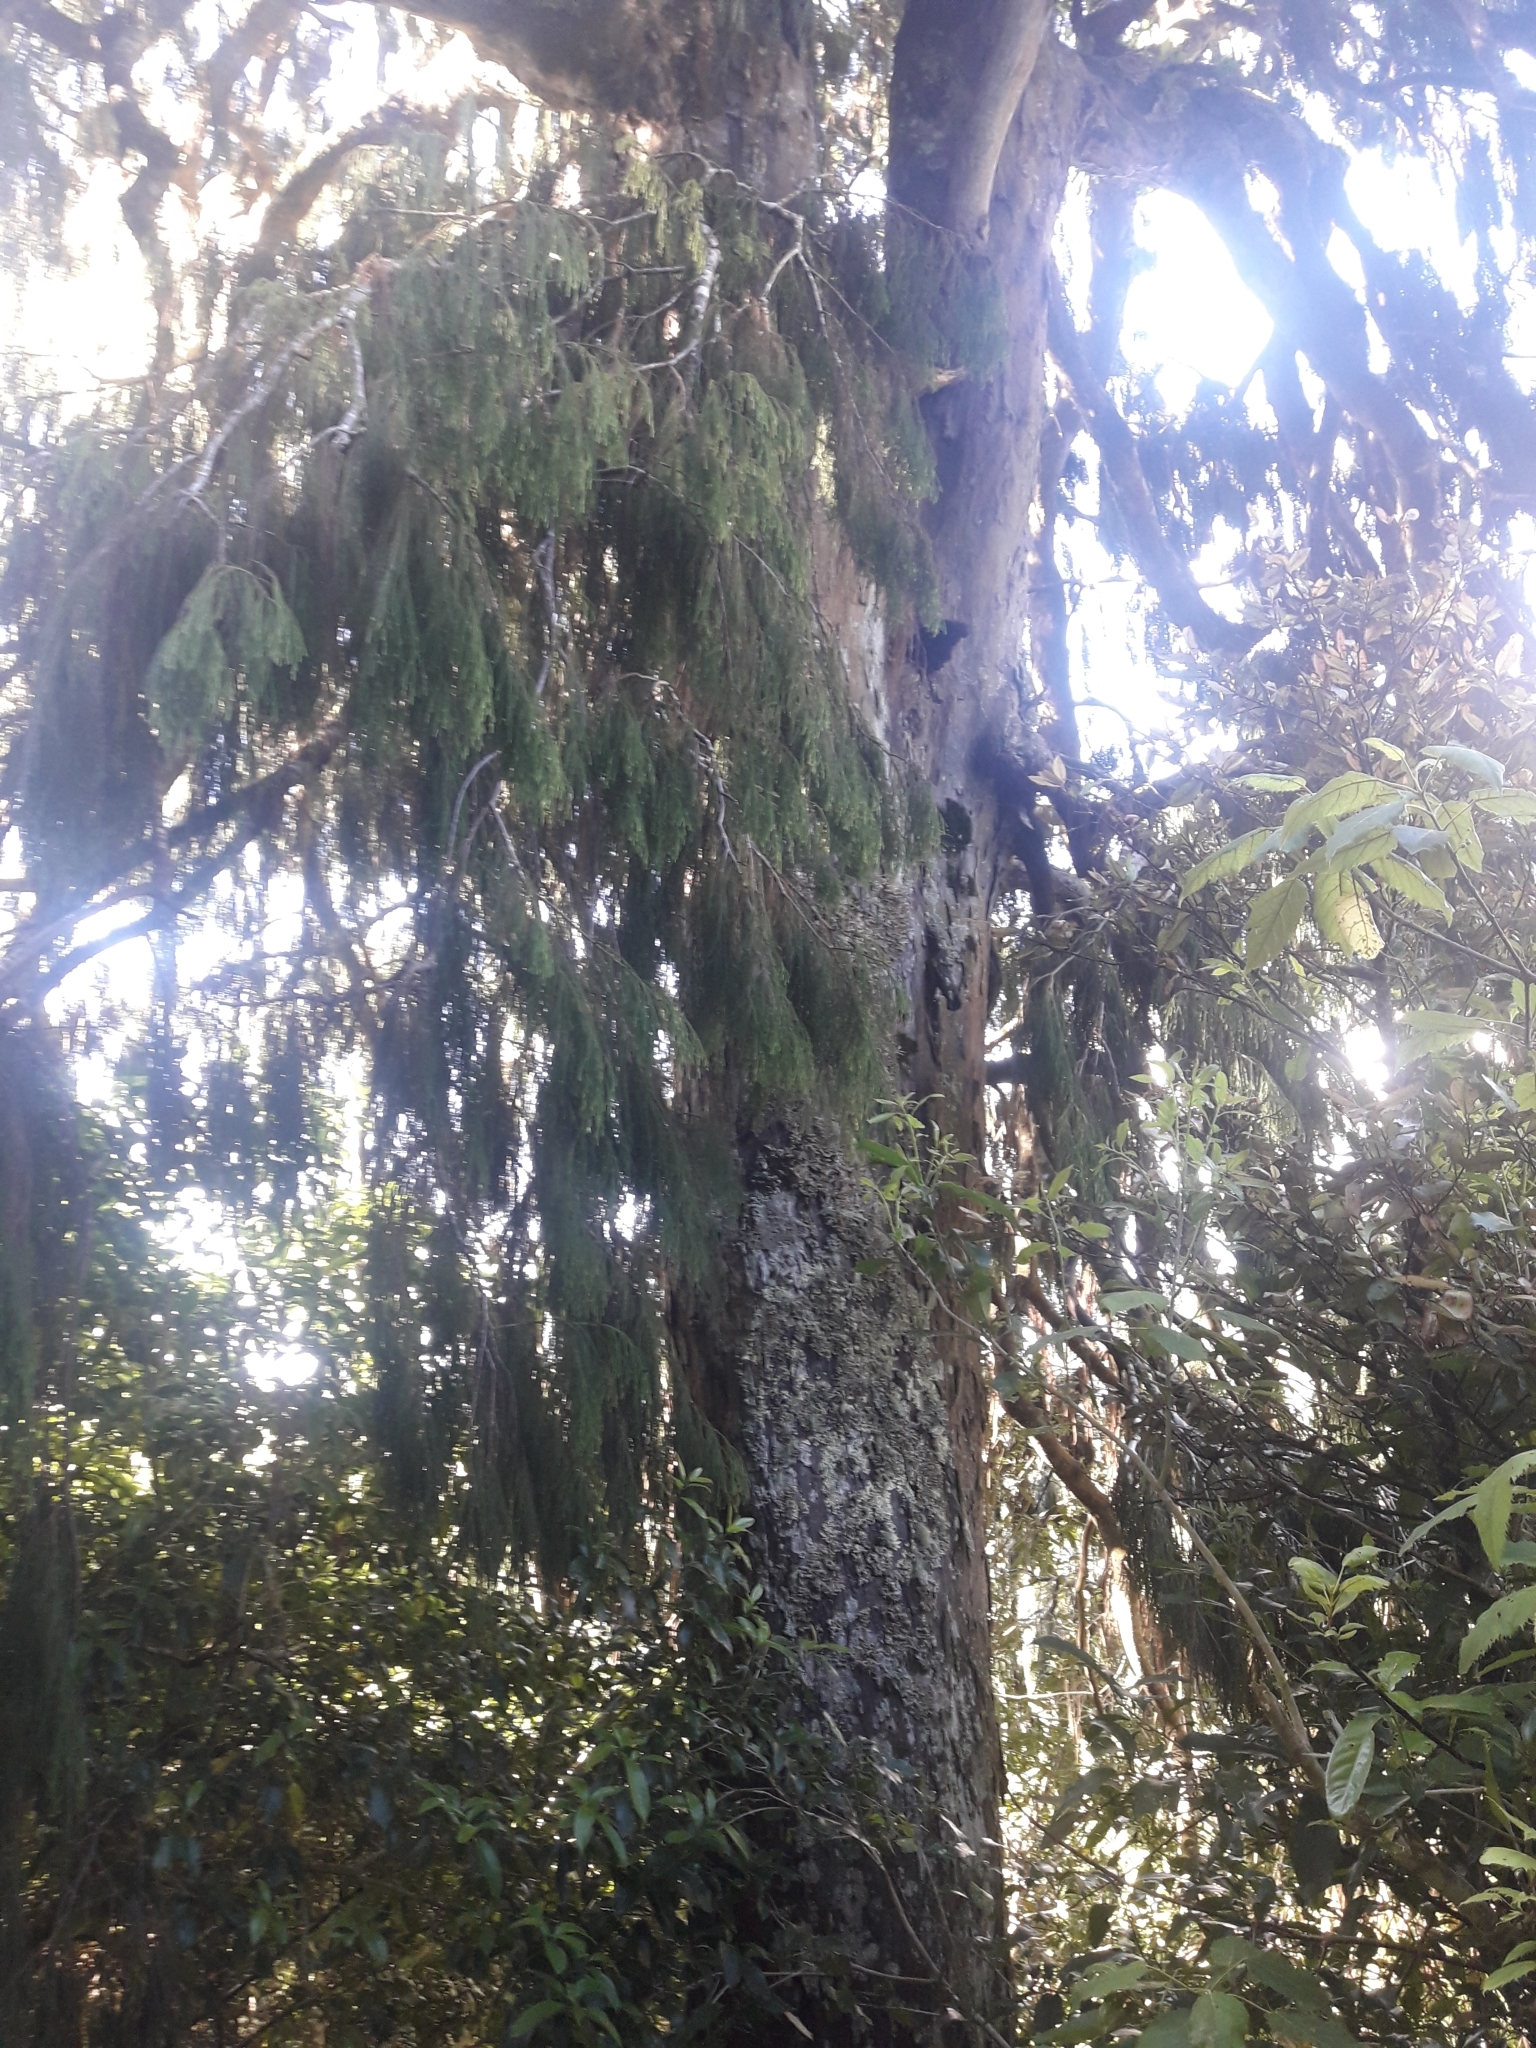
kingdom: Plantae
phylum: Tracheophyta
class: Pinopsida
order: Pinales
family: Podocarpaceae
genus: Dacrydium
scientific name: Dacrydium cupressinum
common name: Red pine
